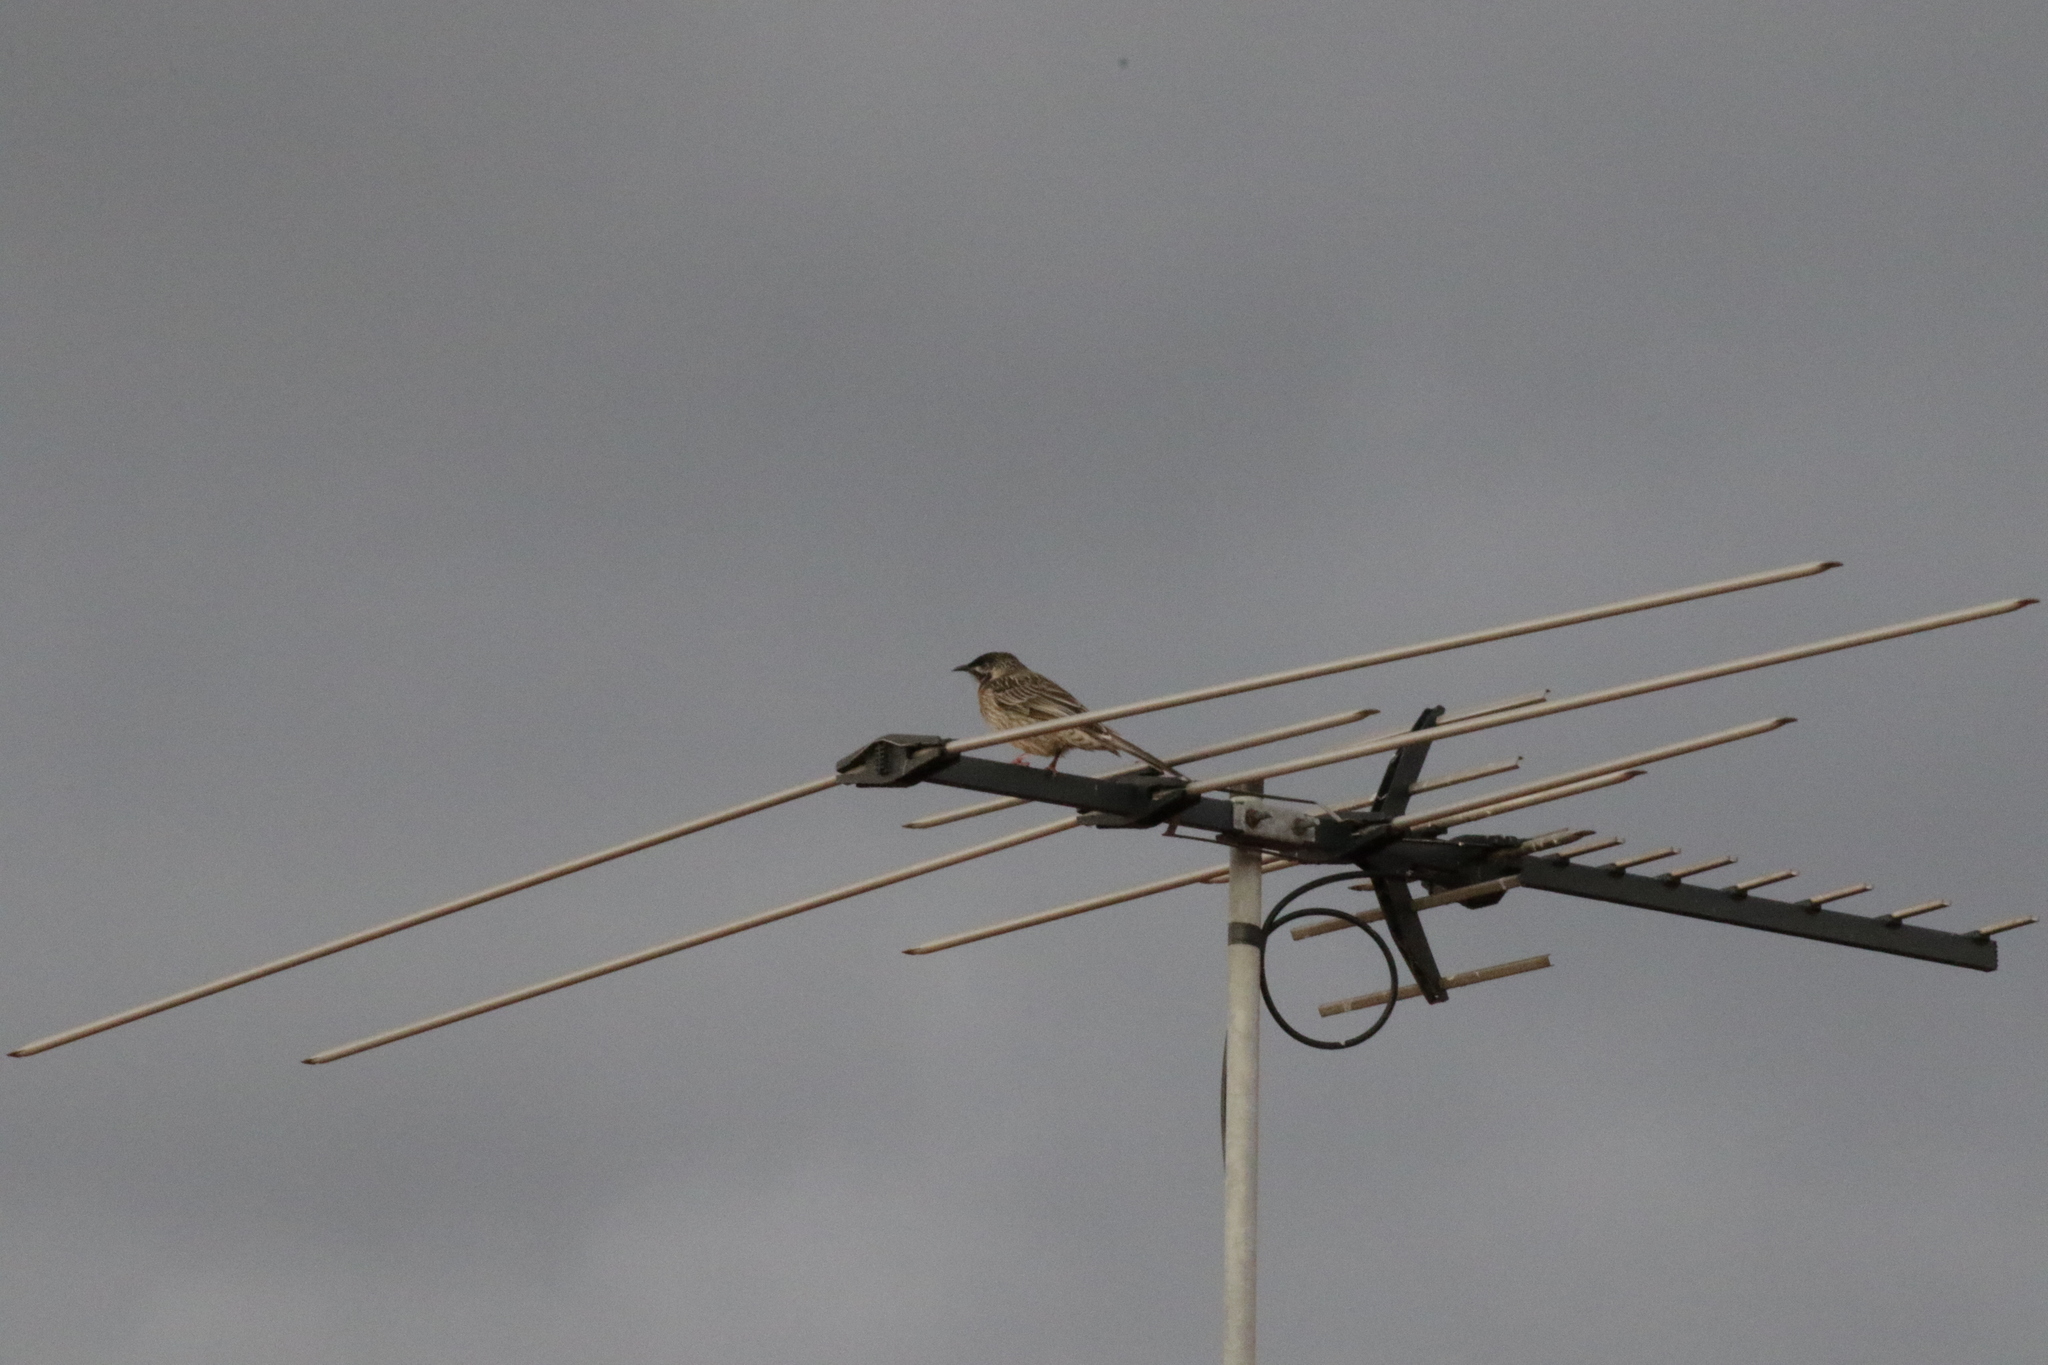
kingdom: Animalia
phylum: Chordata
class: Aves
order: Passeriformes
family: Meliphagidae
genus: Anthochaera
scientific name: Anthochaera carunculata
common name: Red wattlebird
